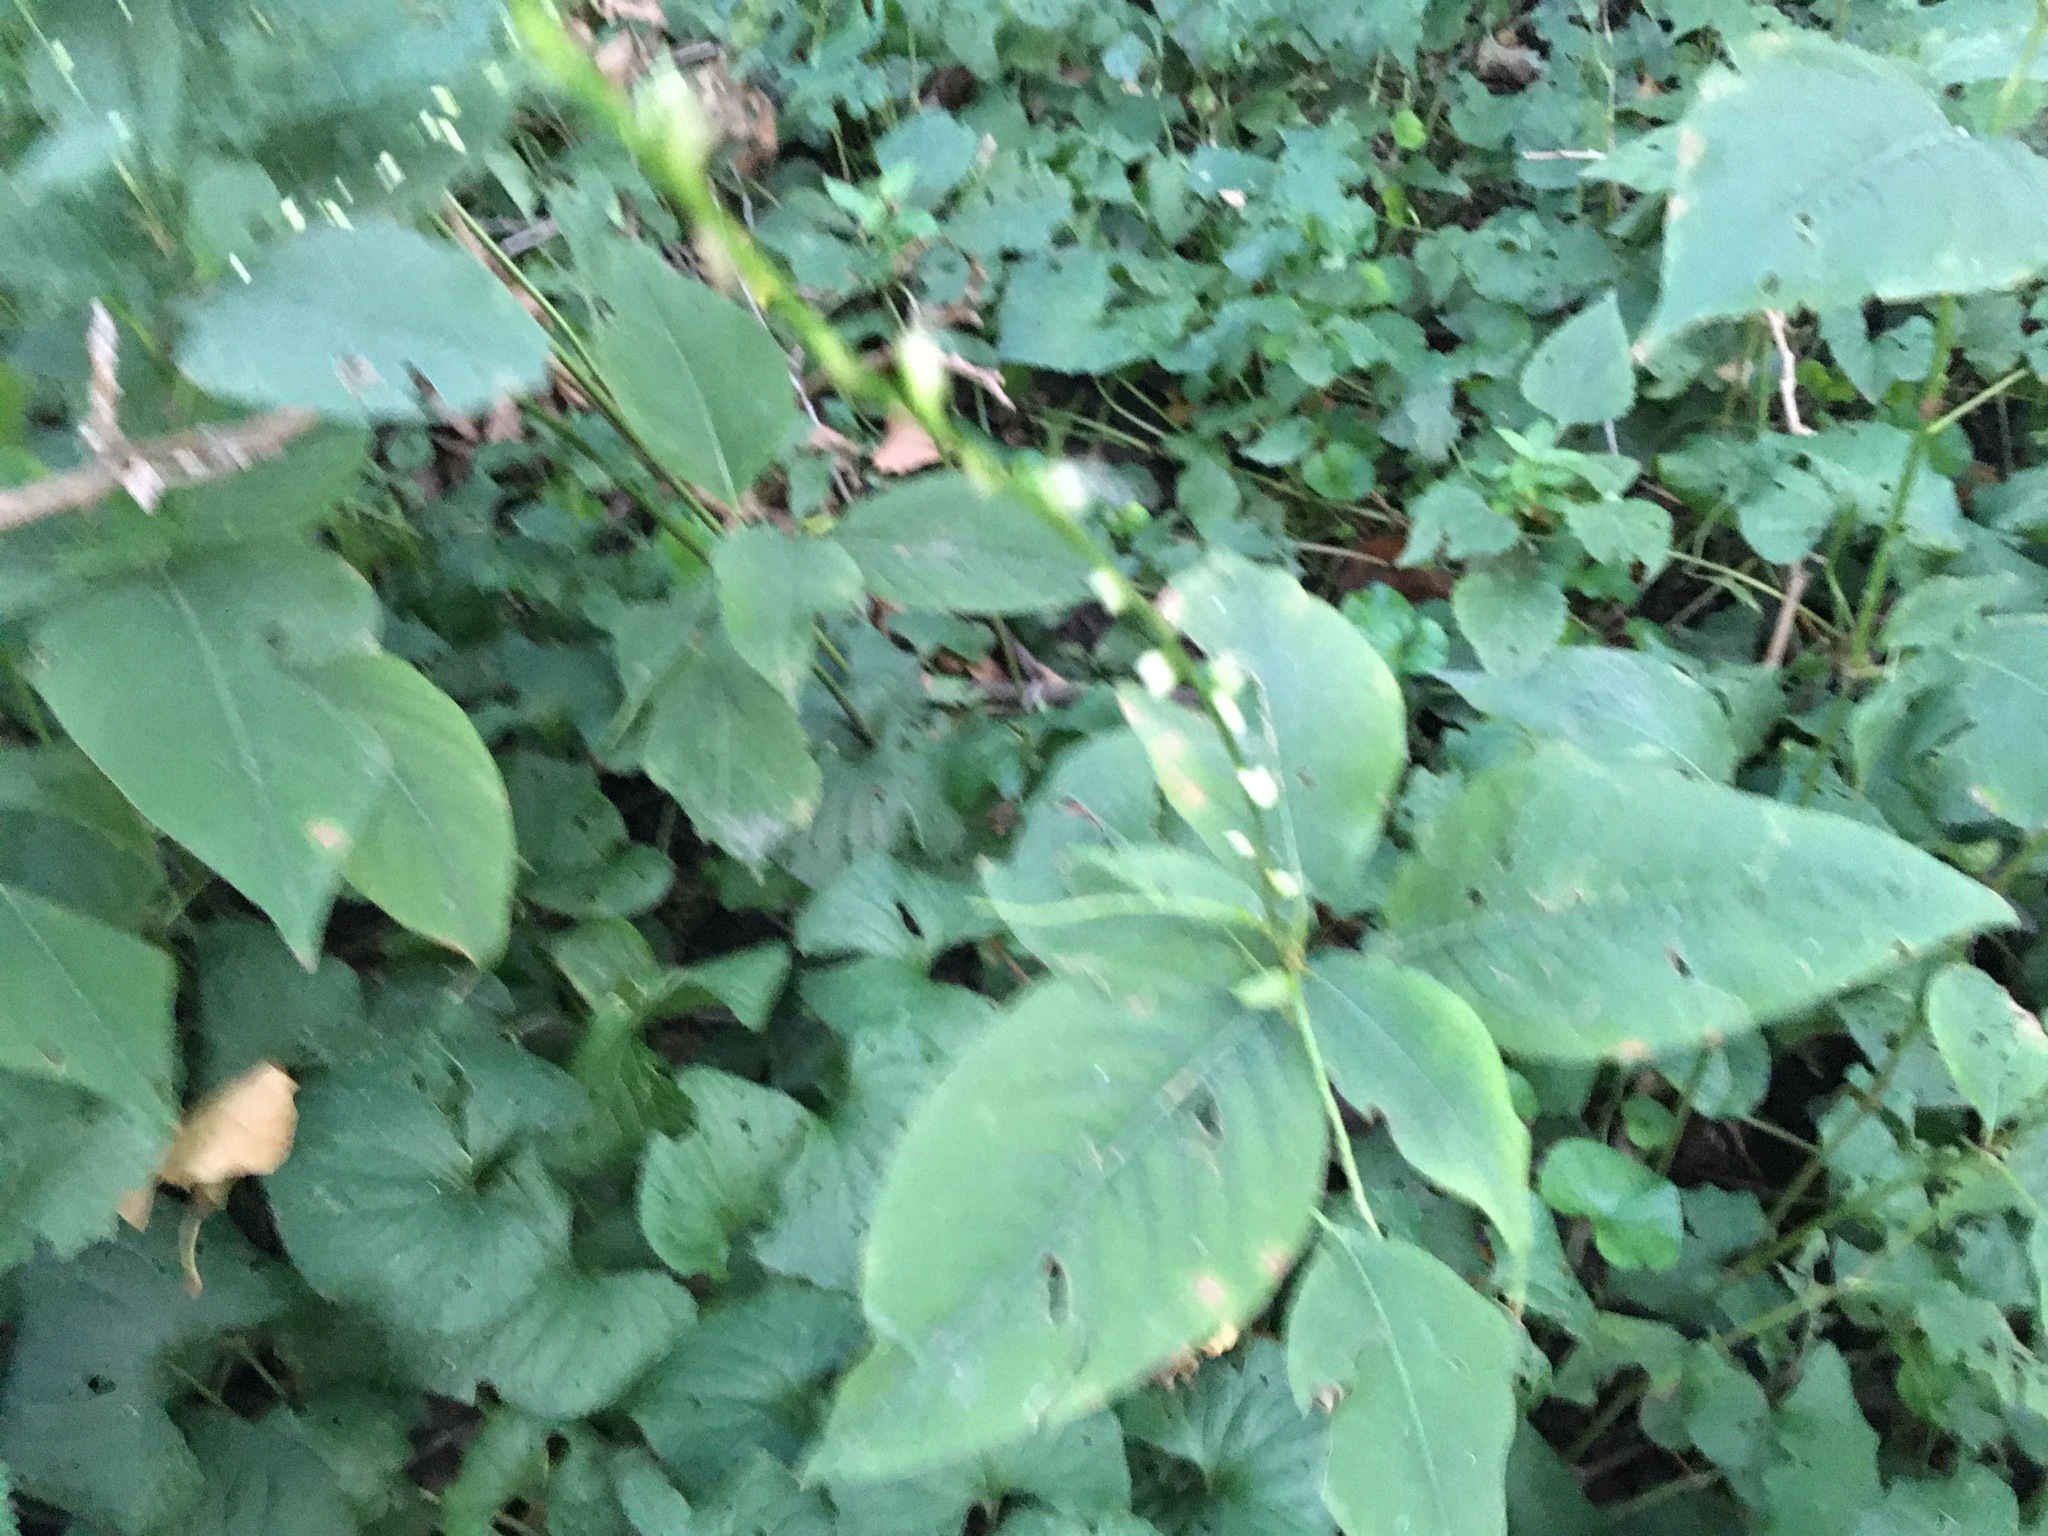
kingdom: Plantae
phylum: Tracheophyta
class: Magnoliopsida
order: Caryophyllales
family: Polygonaceae
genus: Persicaria
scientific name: Persicaria virginiana
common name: Jumpseed
